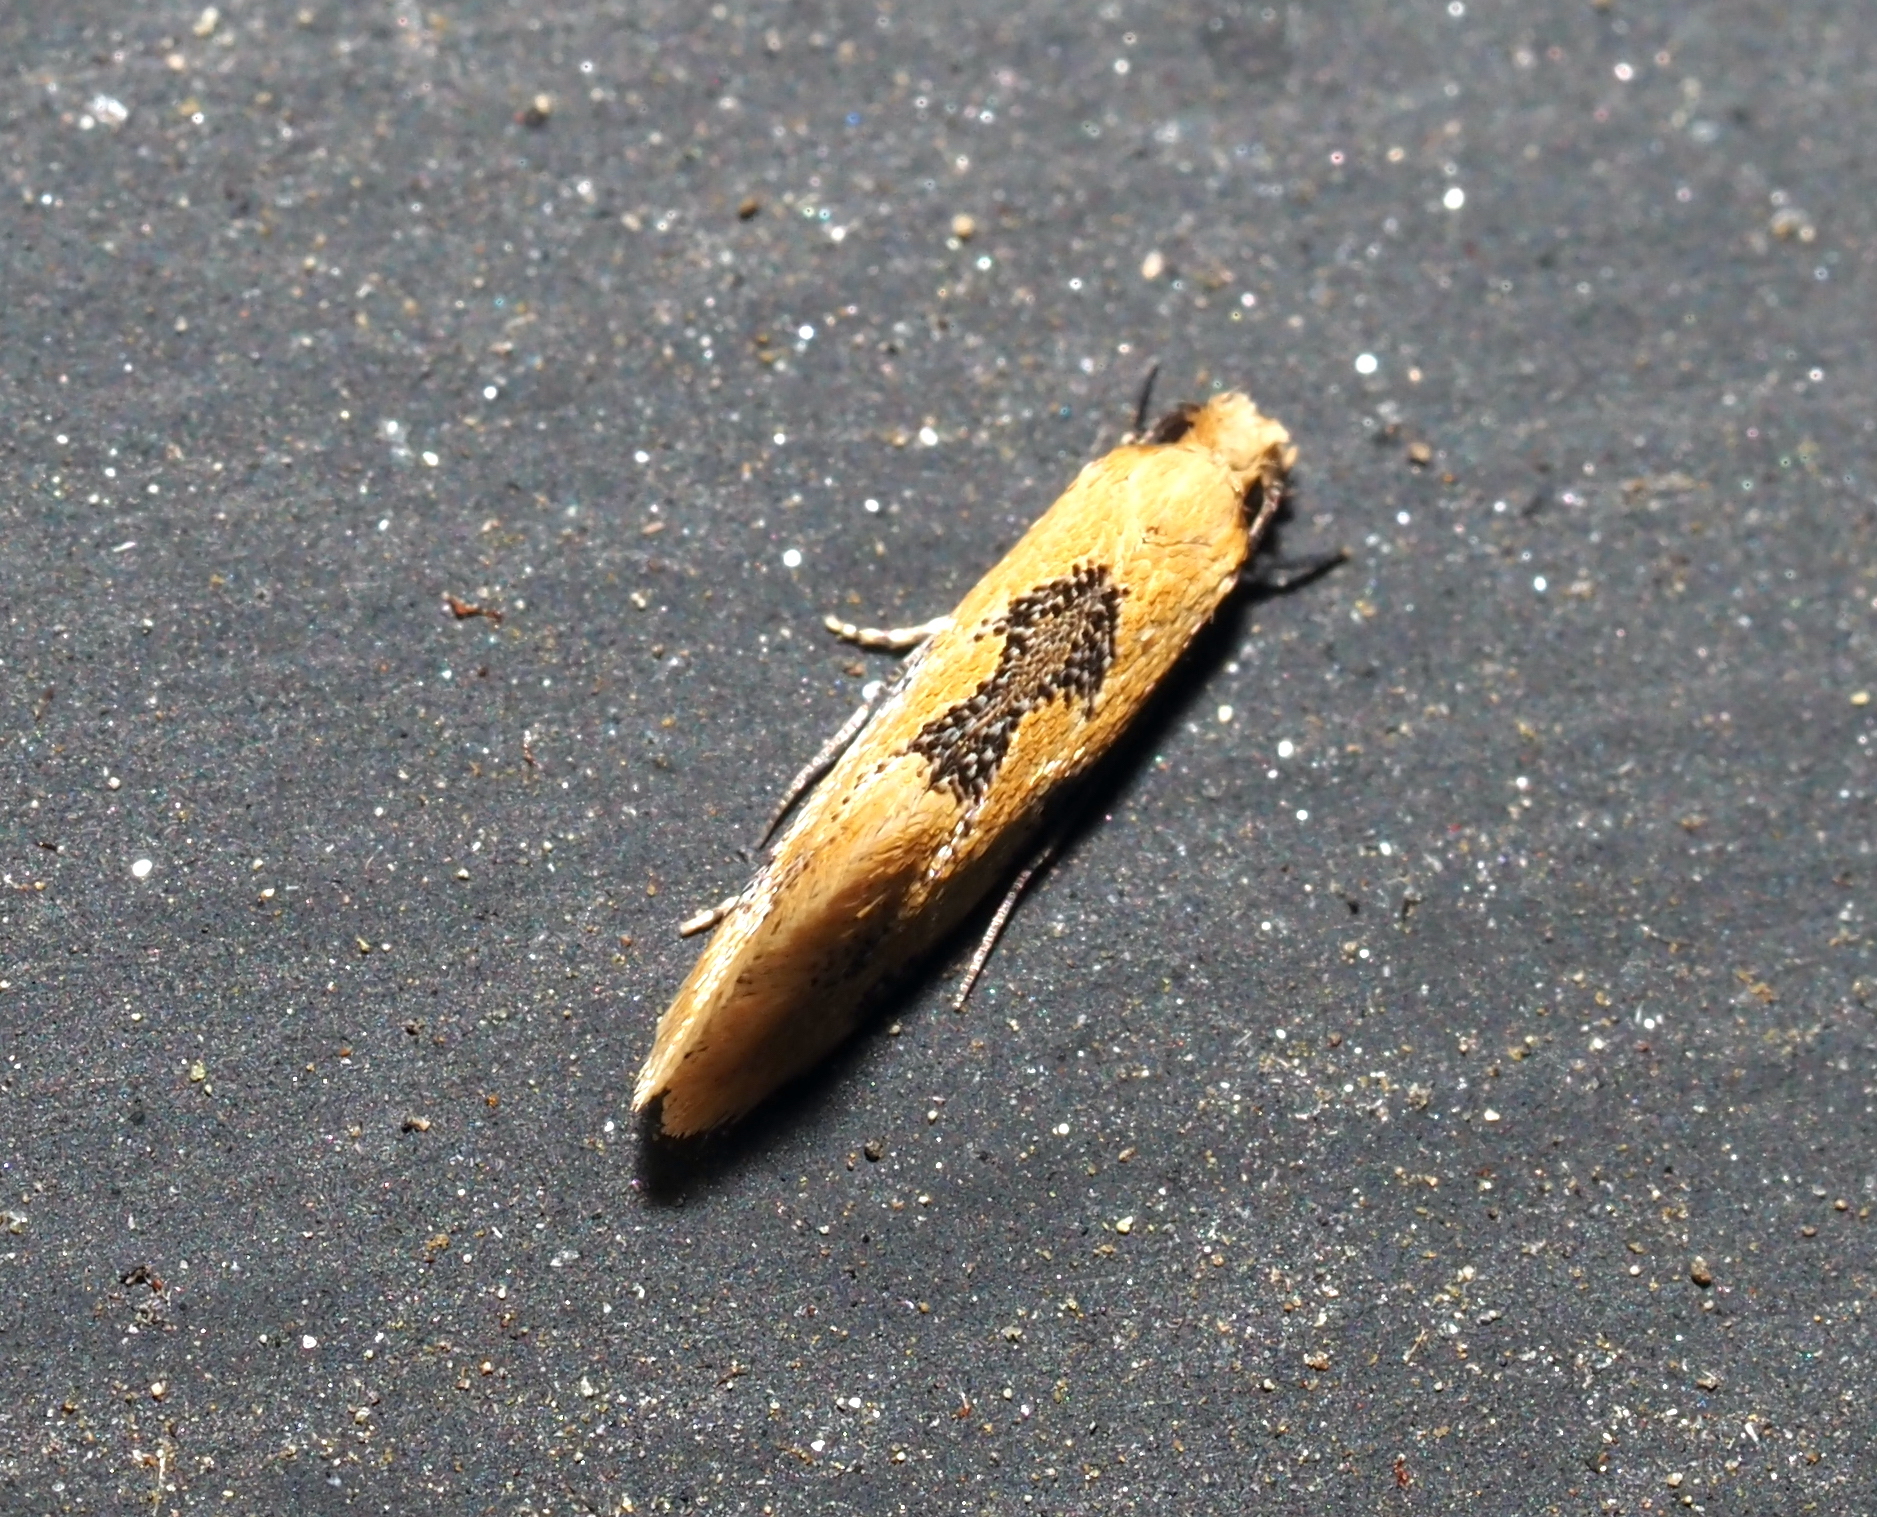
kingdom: Animalia
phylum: Arthropoda
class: Insecta
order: Lepidoptera
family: Meessiidae
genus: Hybroma
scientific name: Hybroma servulella
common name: Yellow wave moth
